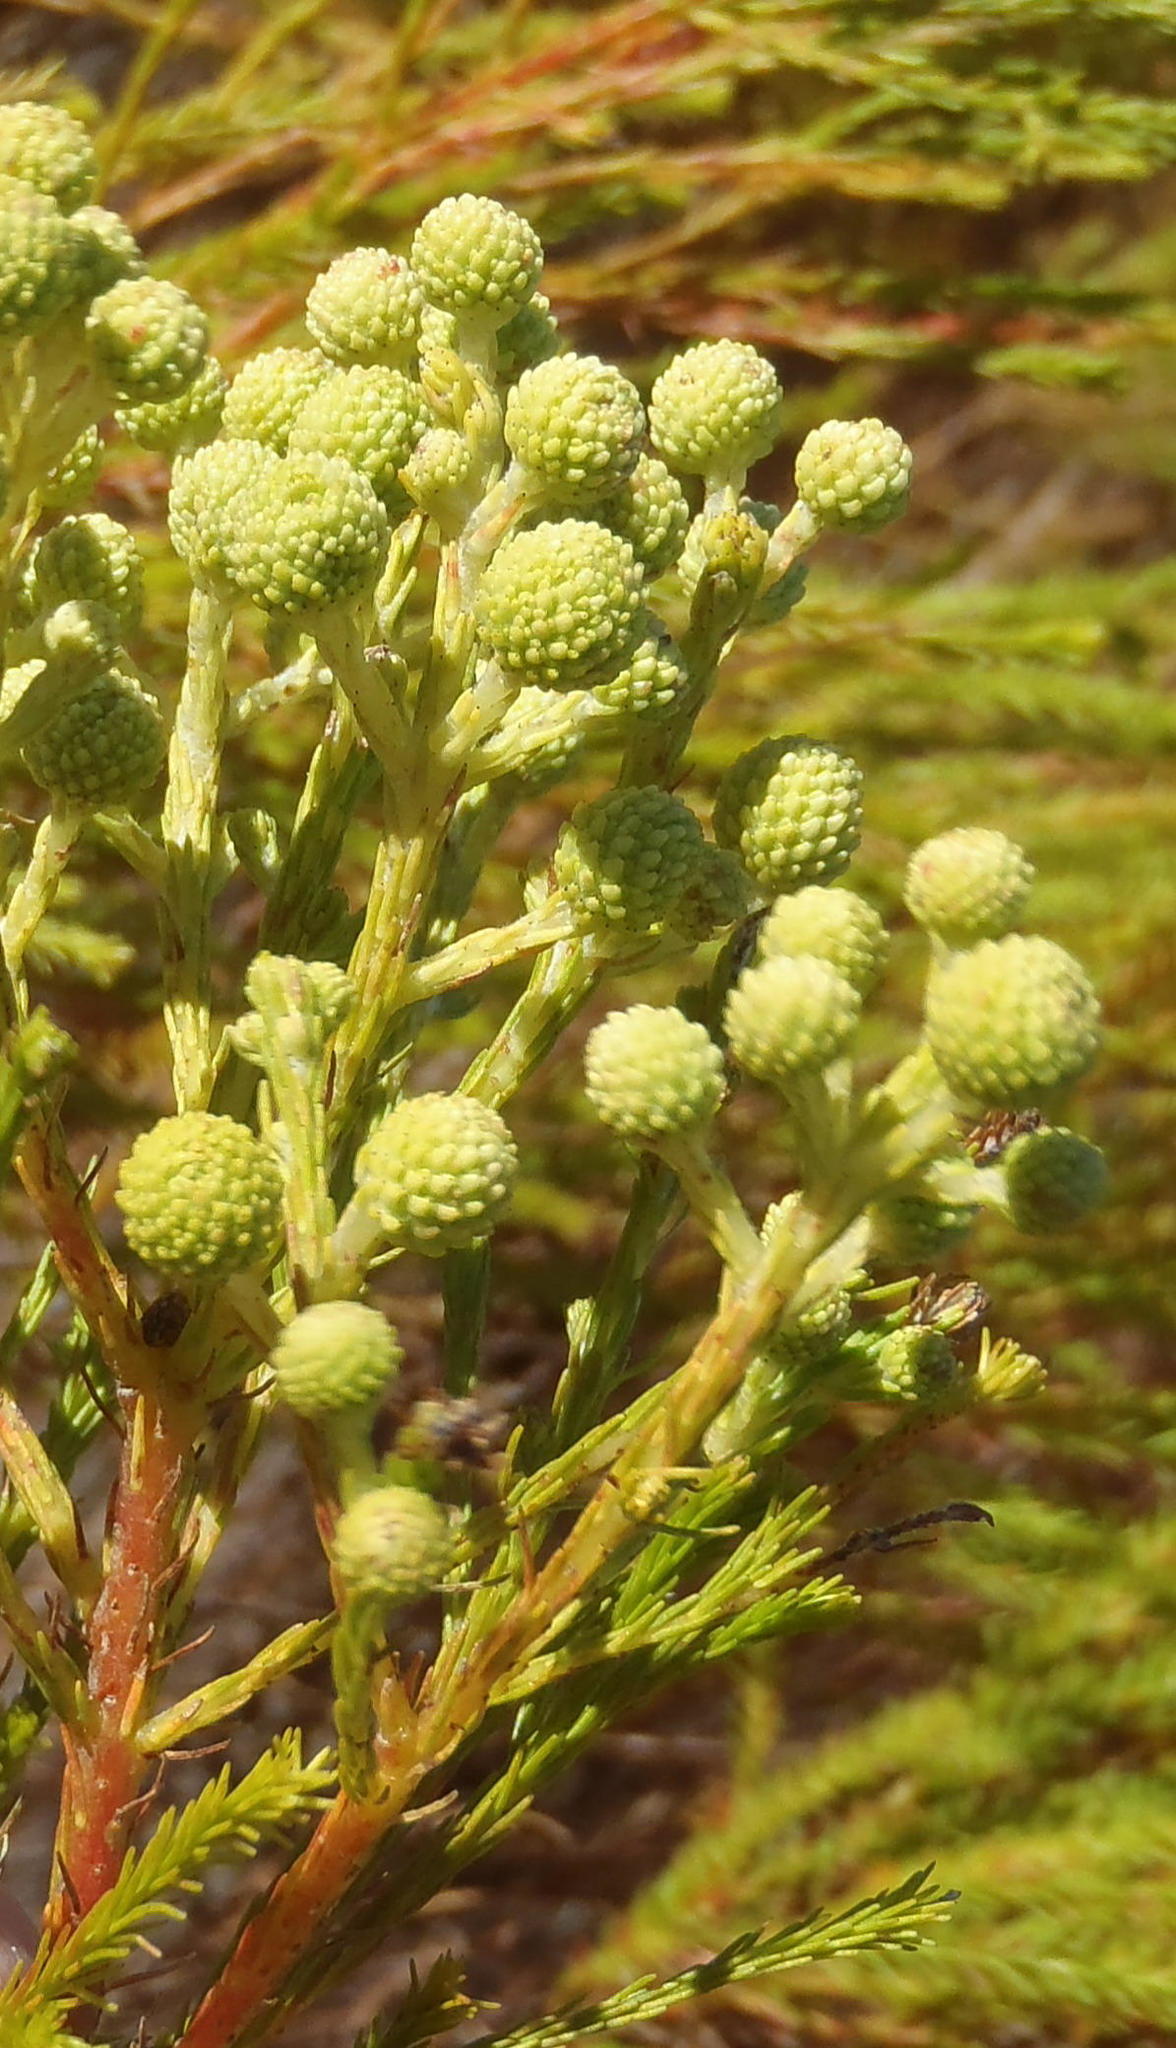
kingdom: Plantae
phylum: Tracheophyta
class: Magnoliopsida
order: Bruniales
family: Bruniaceae
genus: Berzelia
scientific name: Berzelia lanuginosa
